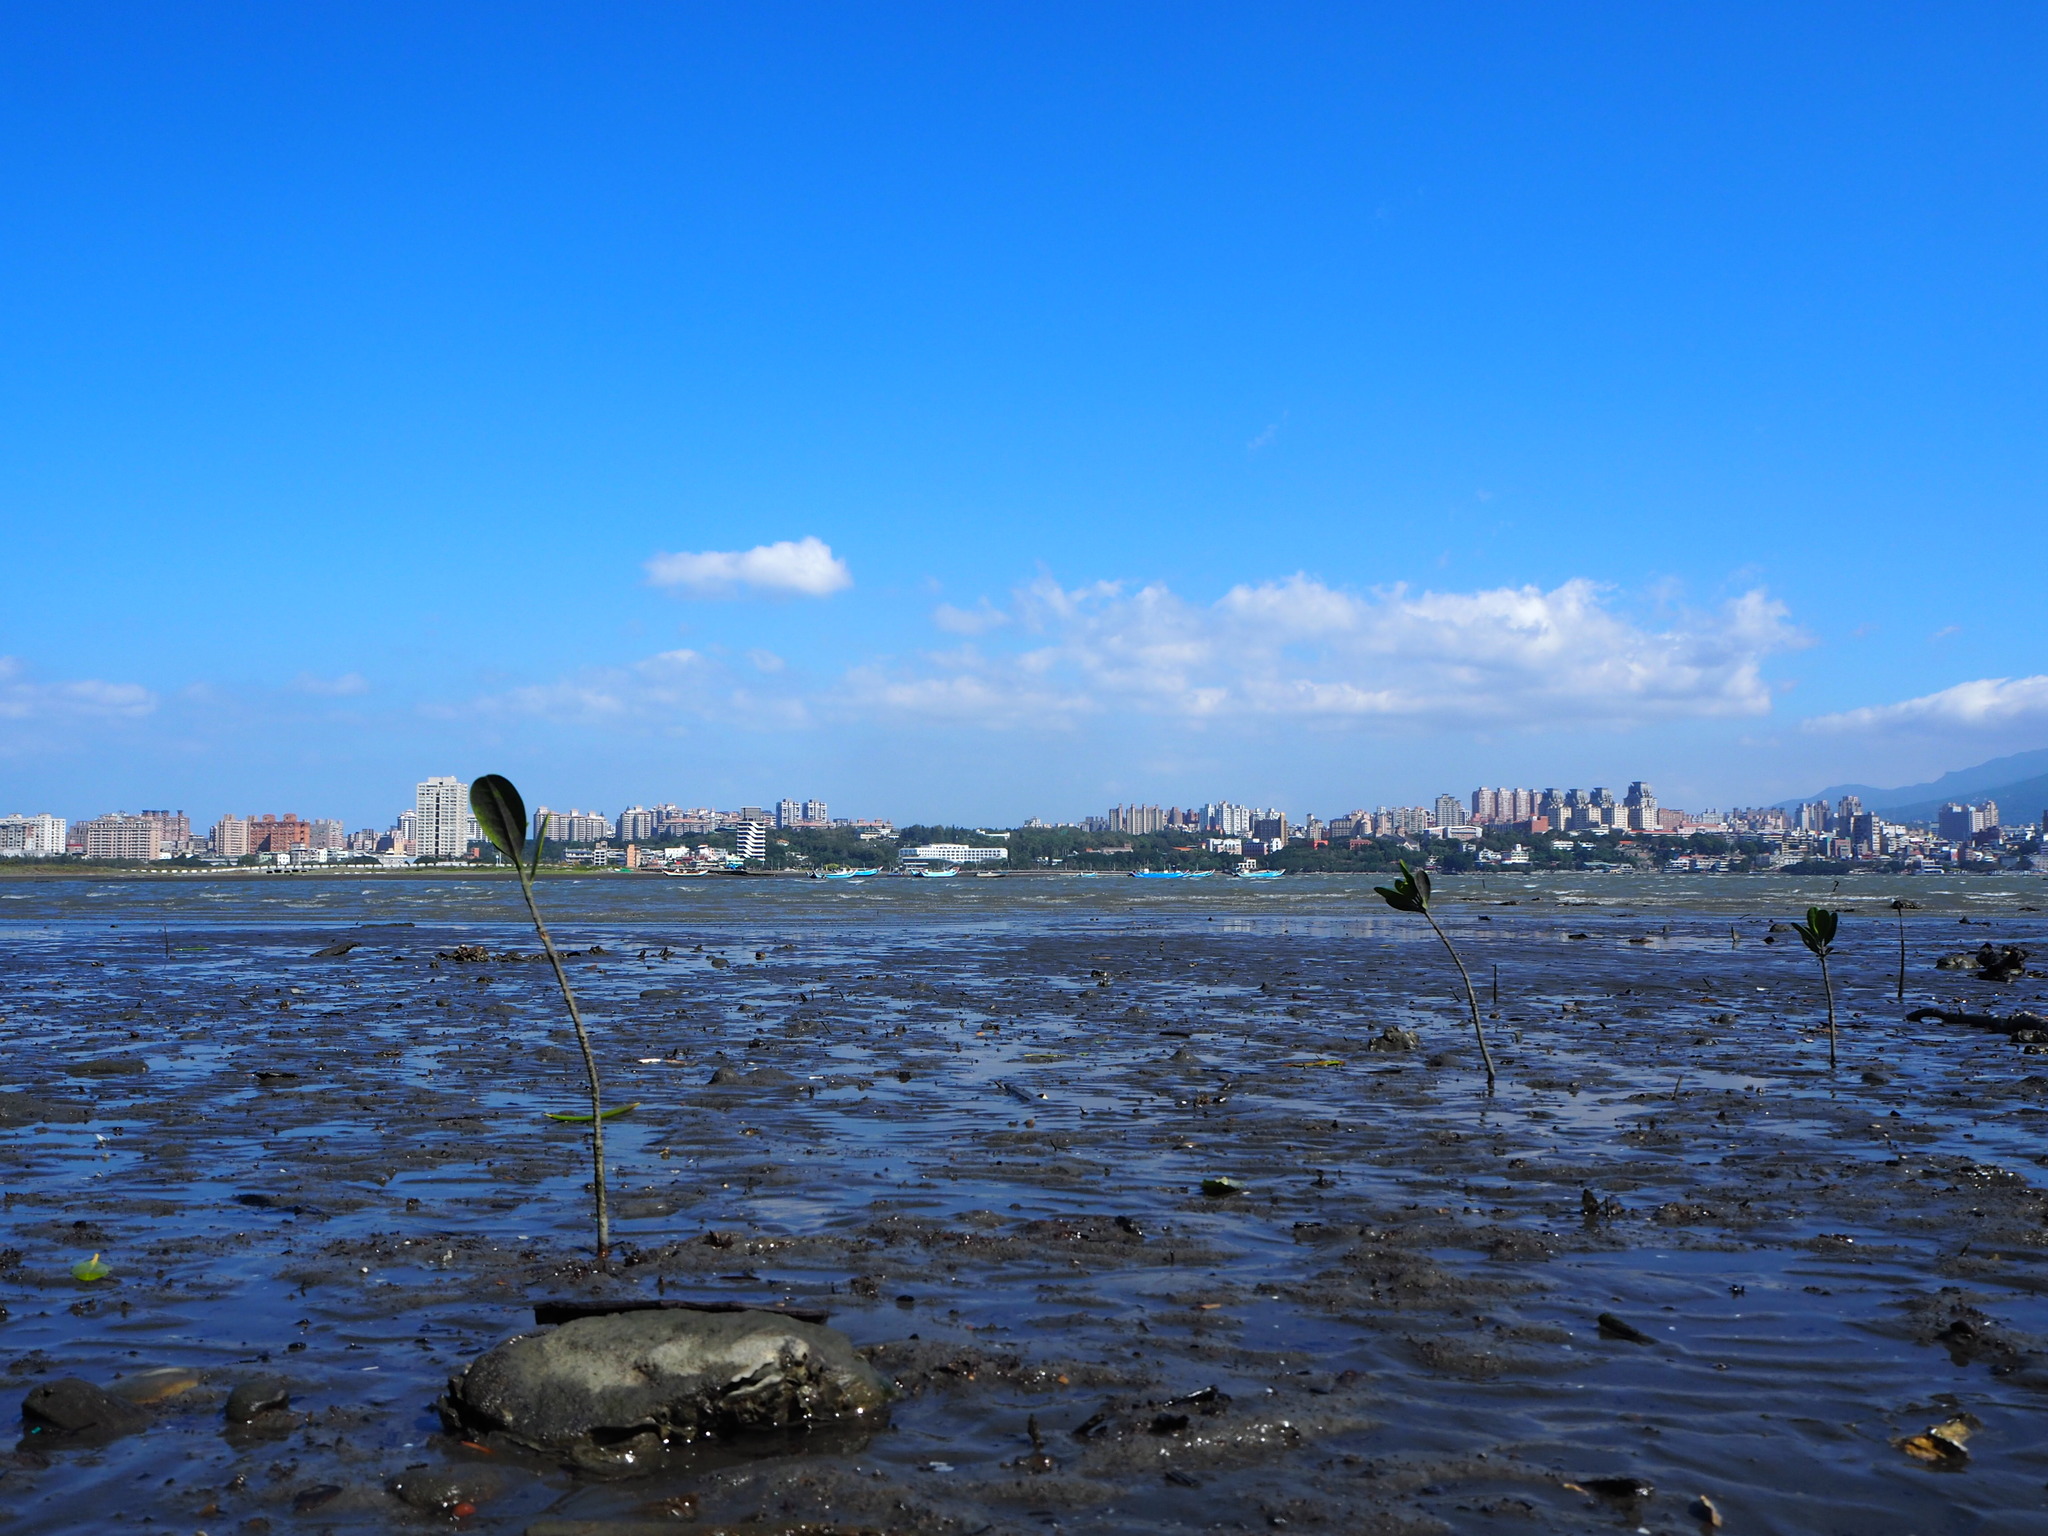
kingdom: Plantae
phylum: Tracheophyta
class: Magnoliopsida
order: Malpighiales
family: Rhizophoraceae
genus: Kandelia
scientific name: Kandelia obovata
